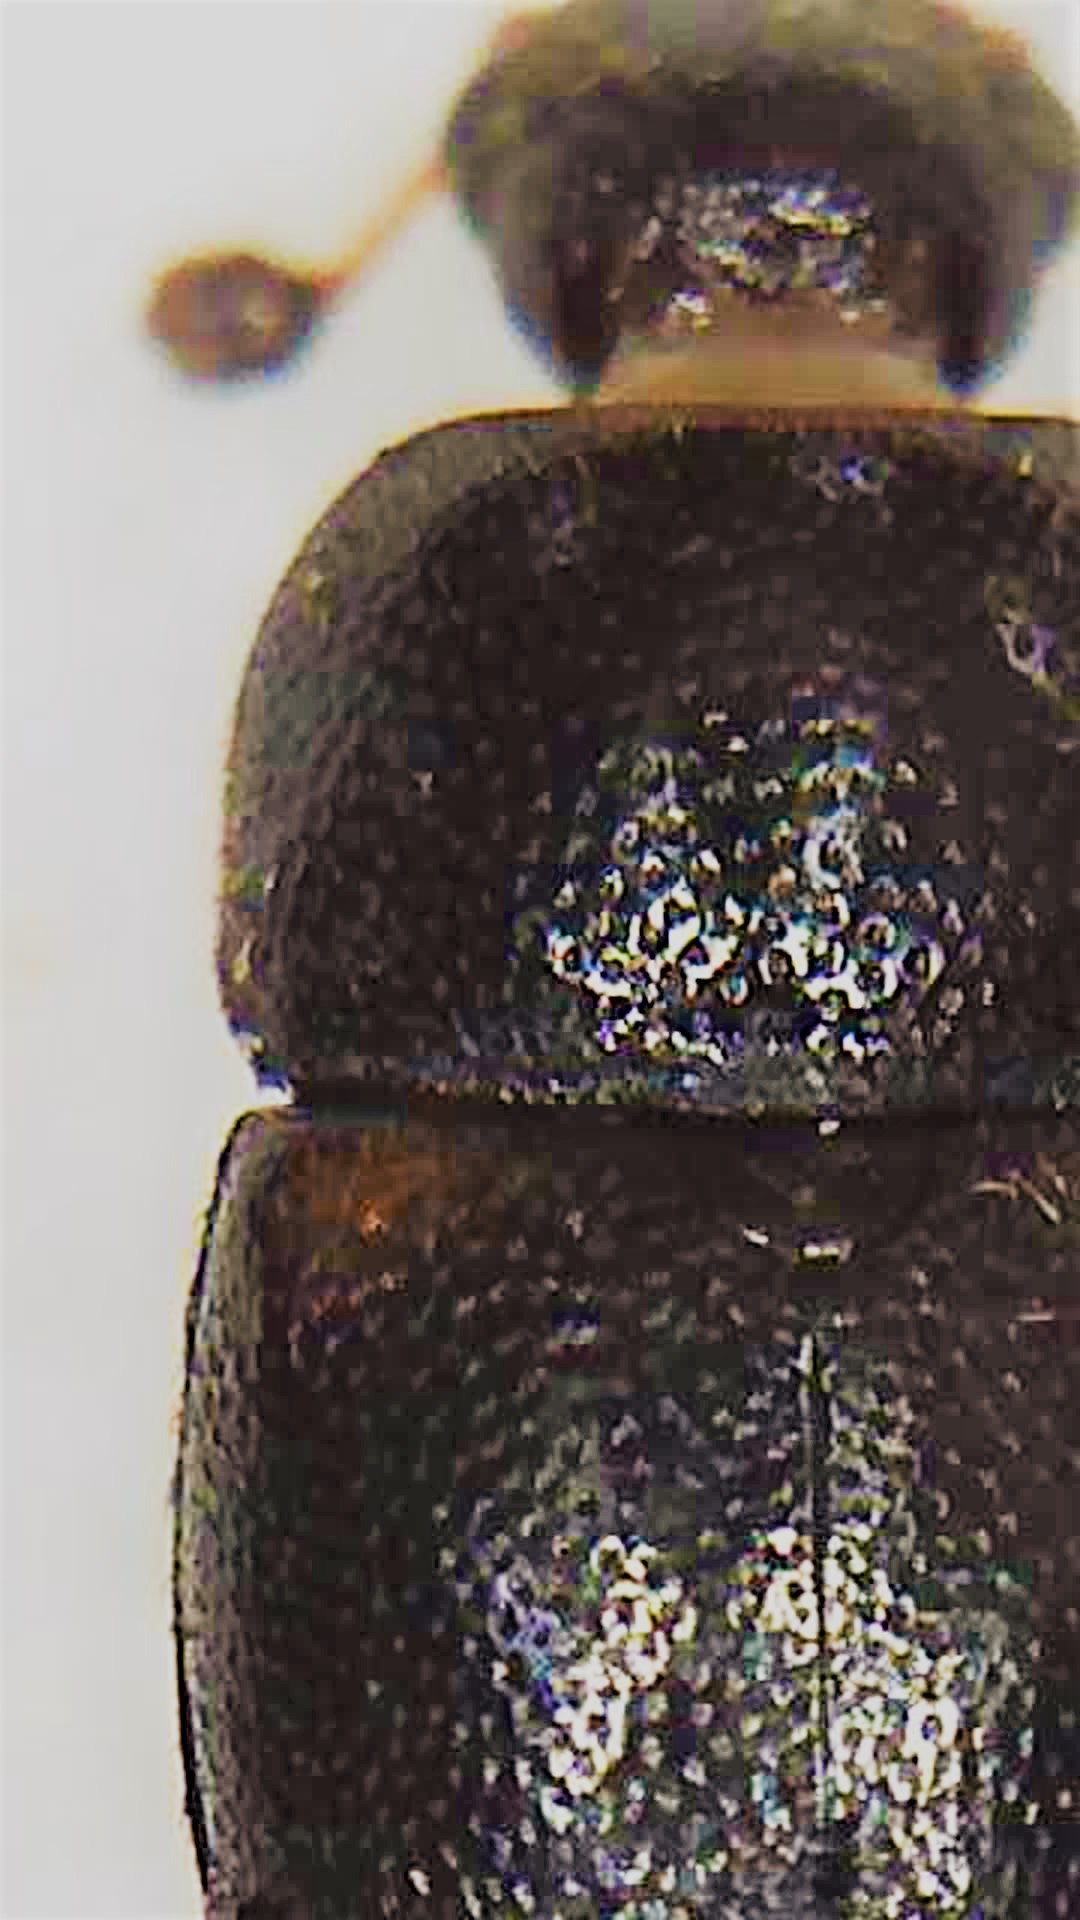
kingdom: Animalia
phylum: Arthropoda
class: Insecta
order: Coleoptera
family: Nitidulidae
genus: Urophorus
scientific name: Urophorus humeralis
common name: Sap beetle
